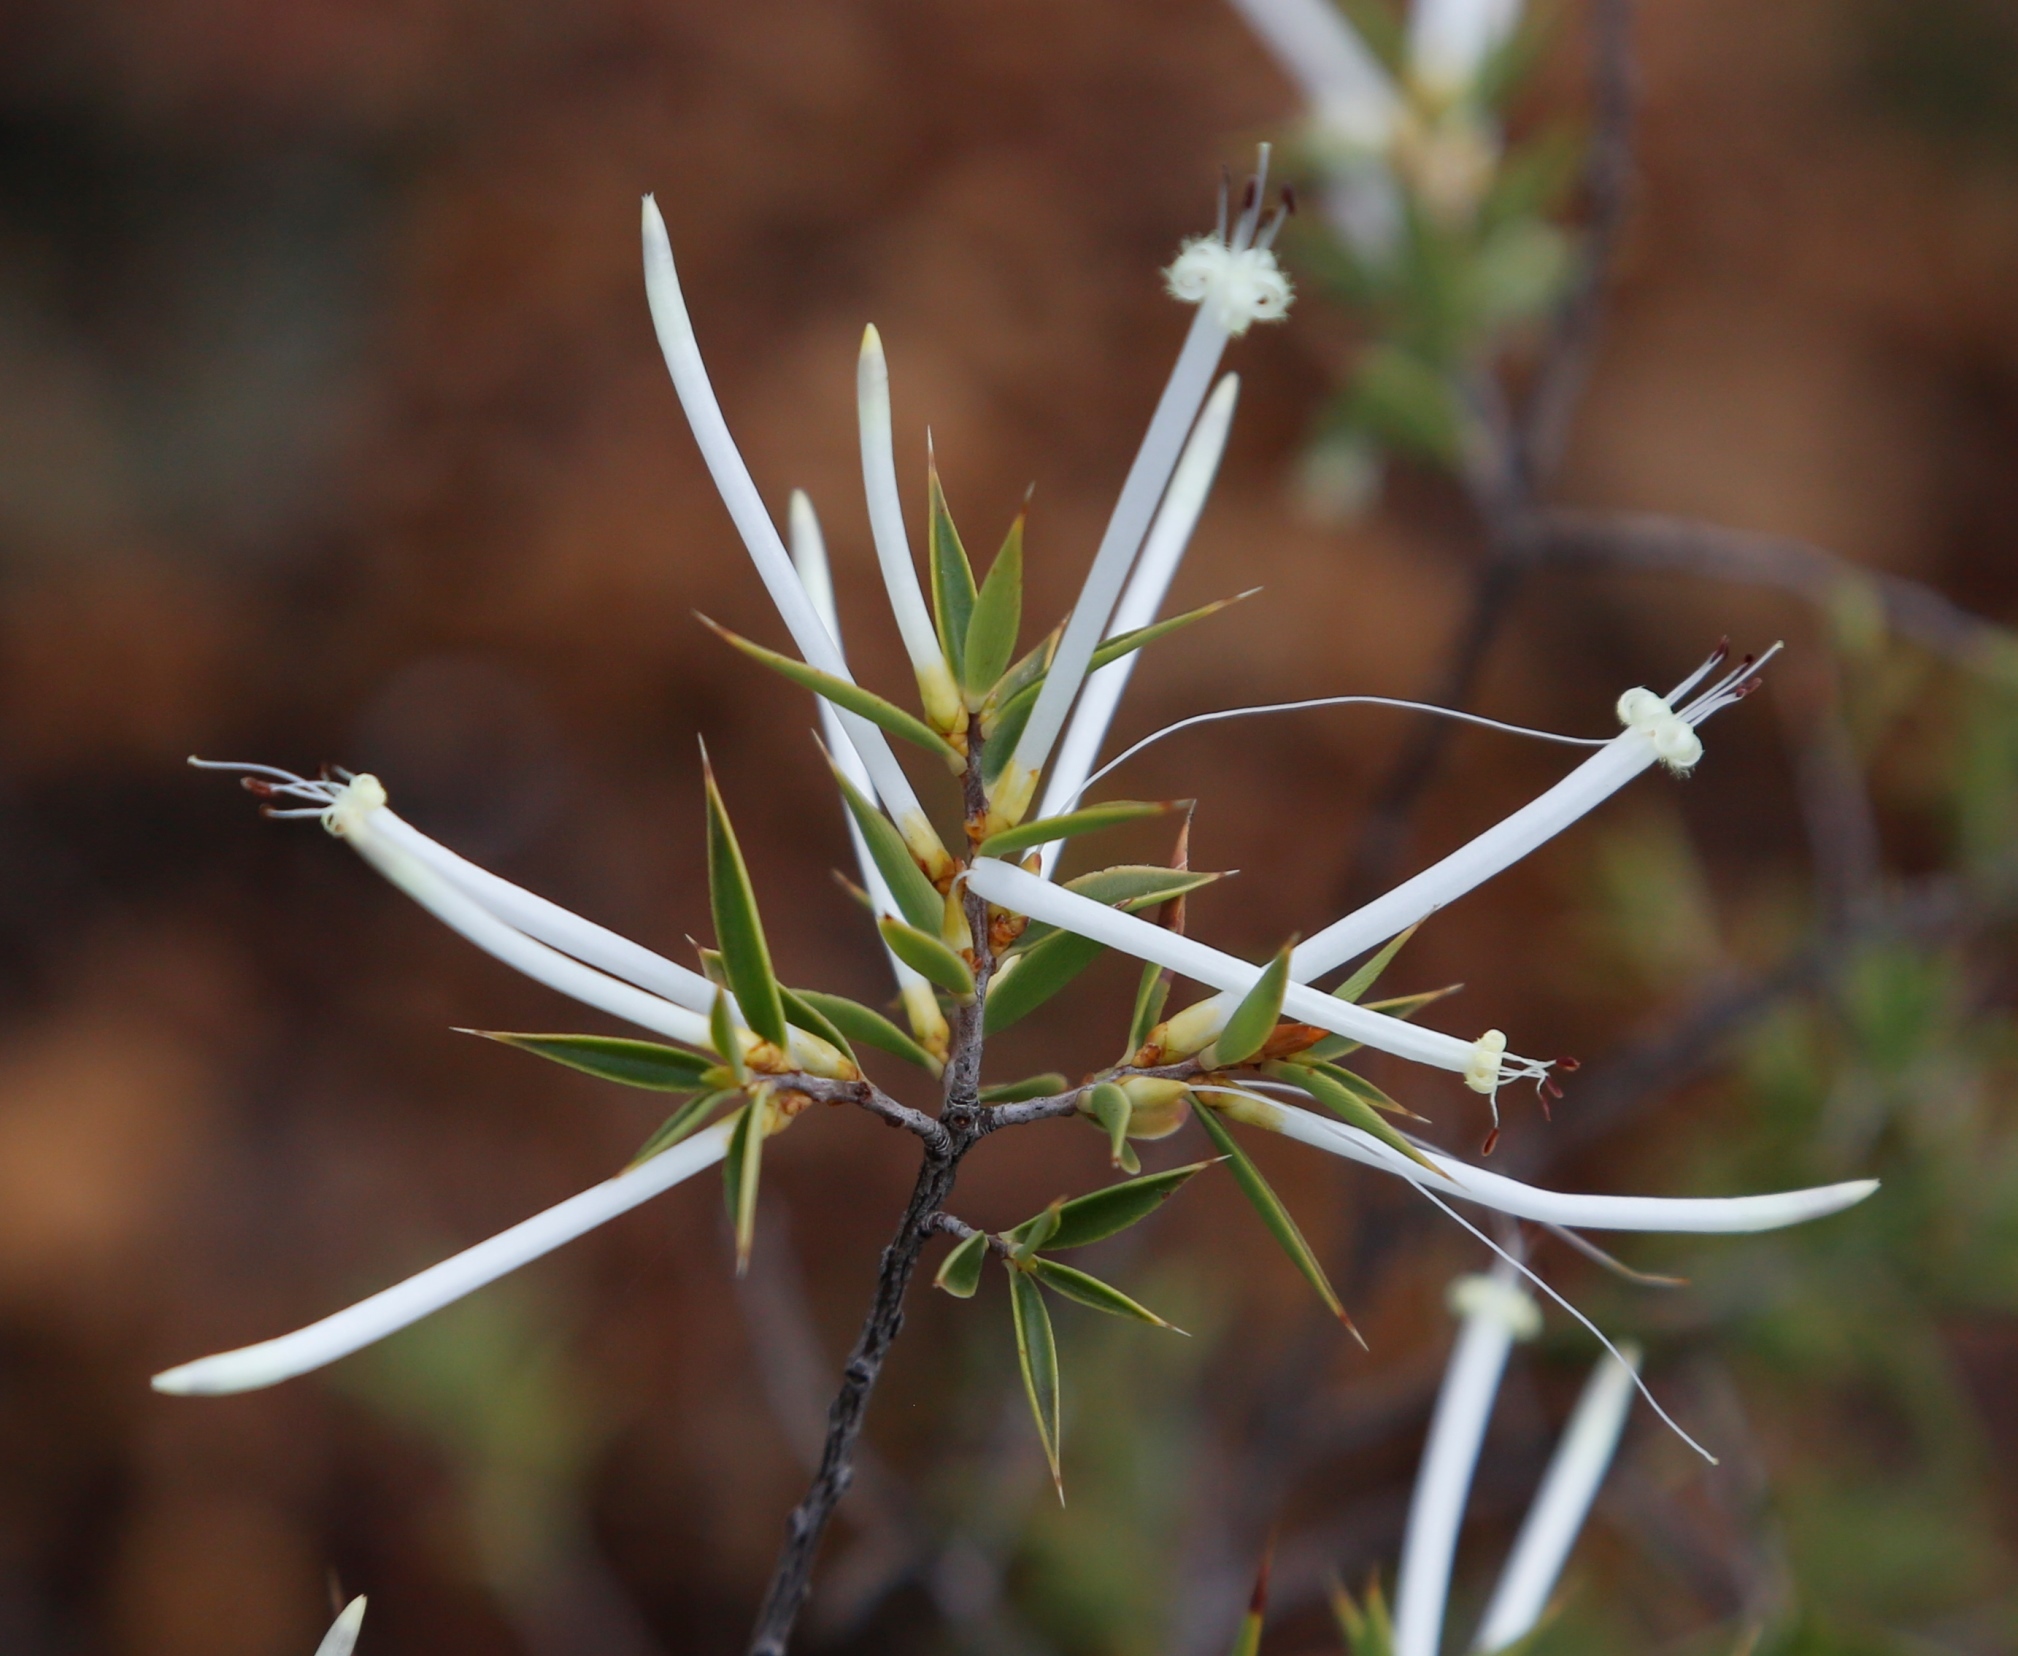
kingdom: Plantae
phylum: Tracheophyta
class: Magnoliopsida
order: Ericales
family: Ericaceae
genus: Styphelia
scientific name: Styphelia tenuiflora
